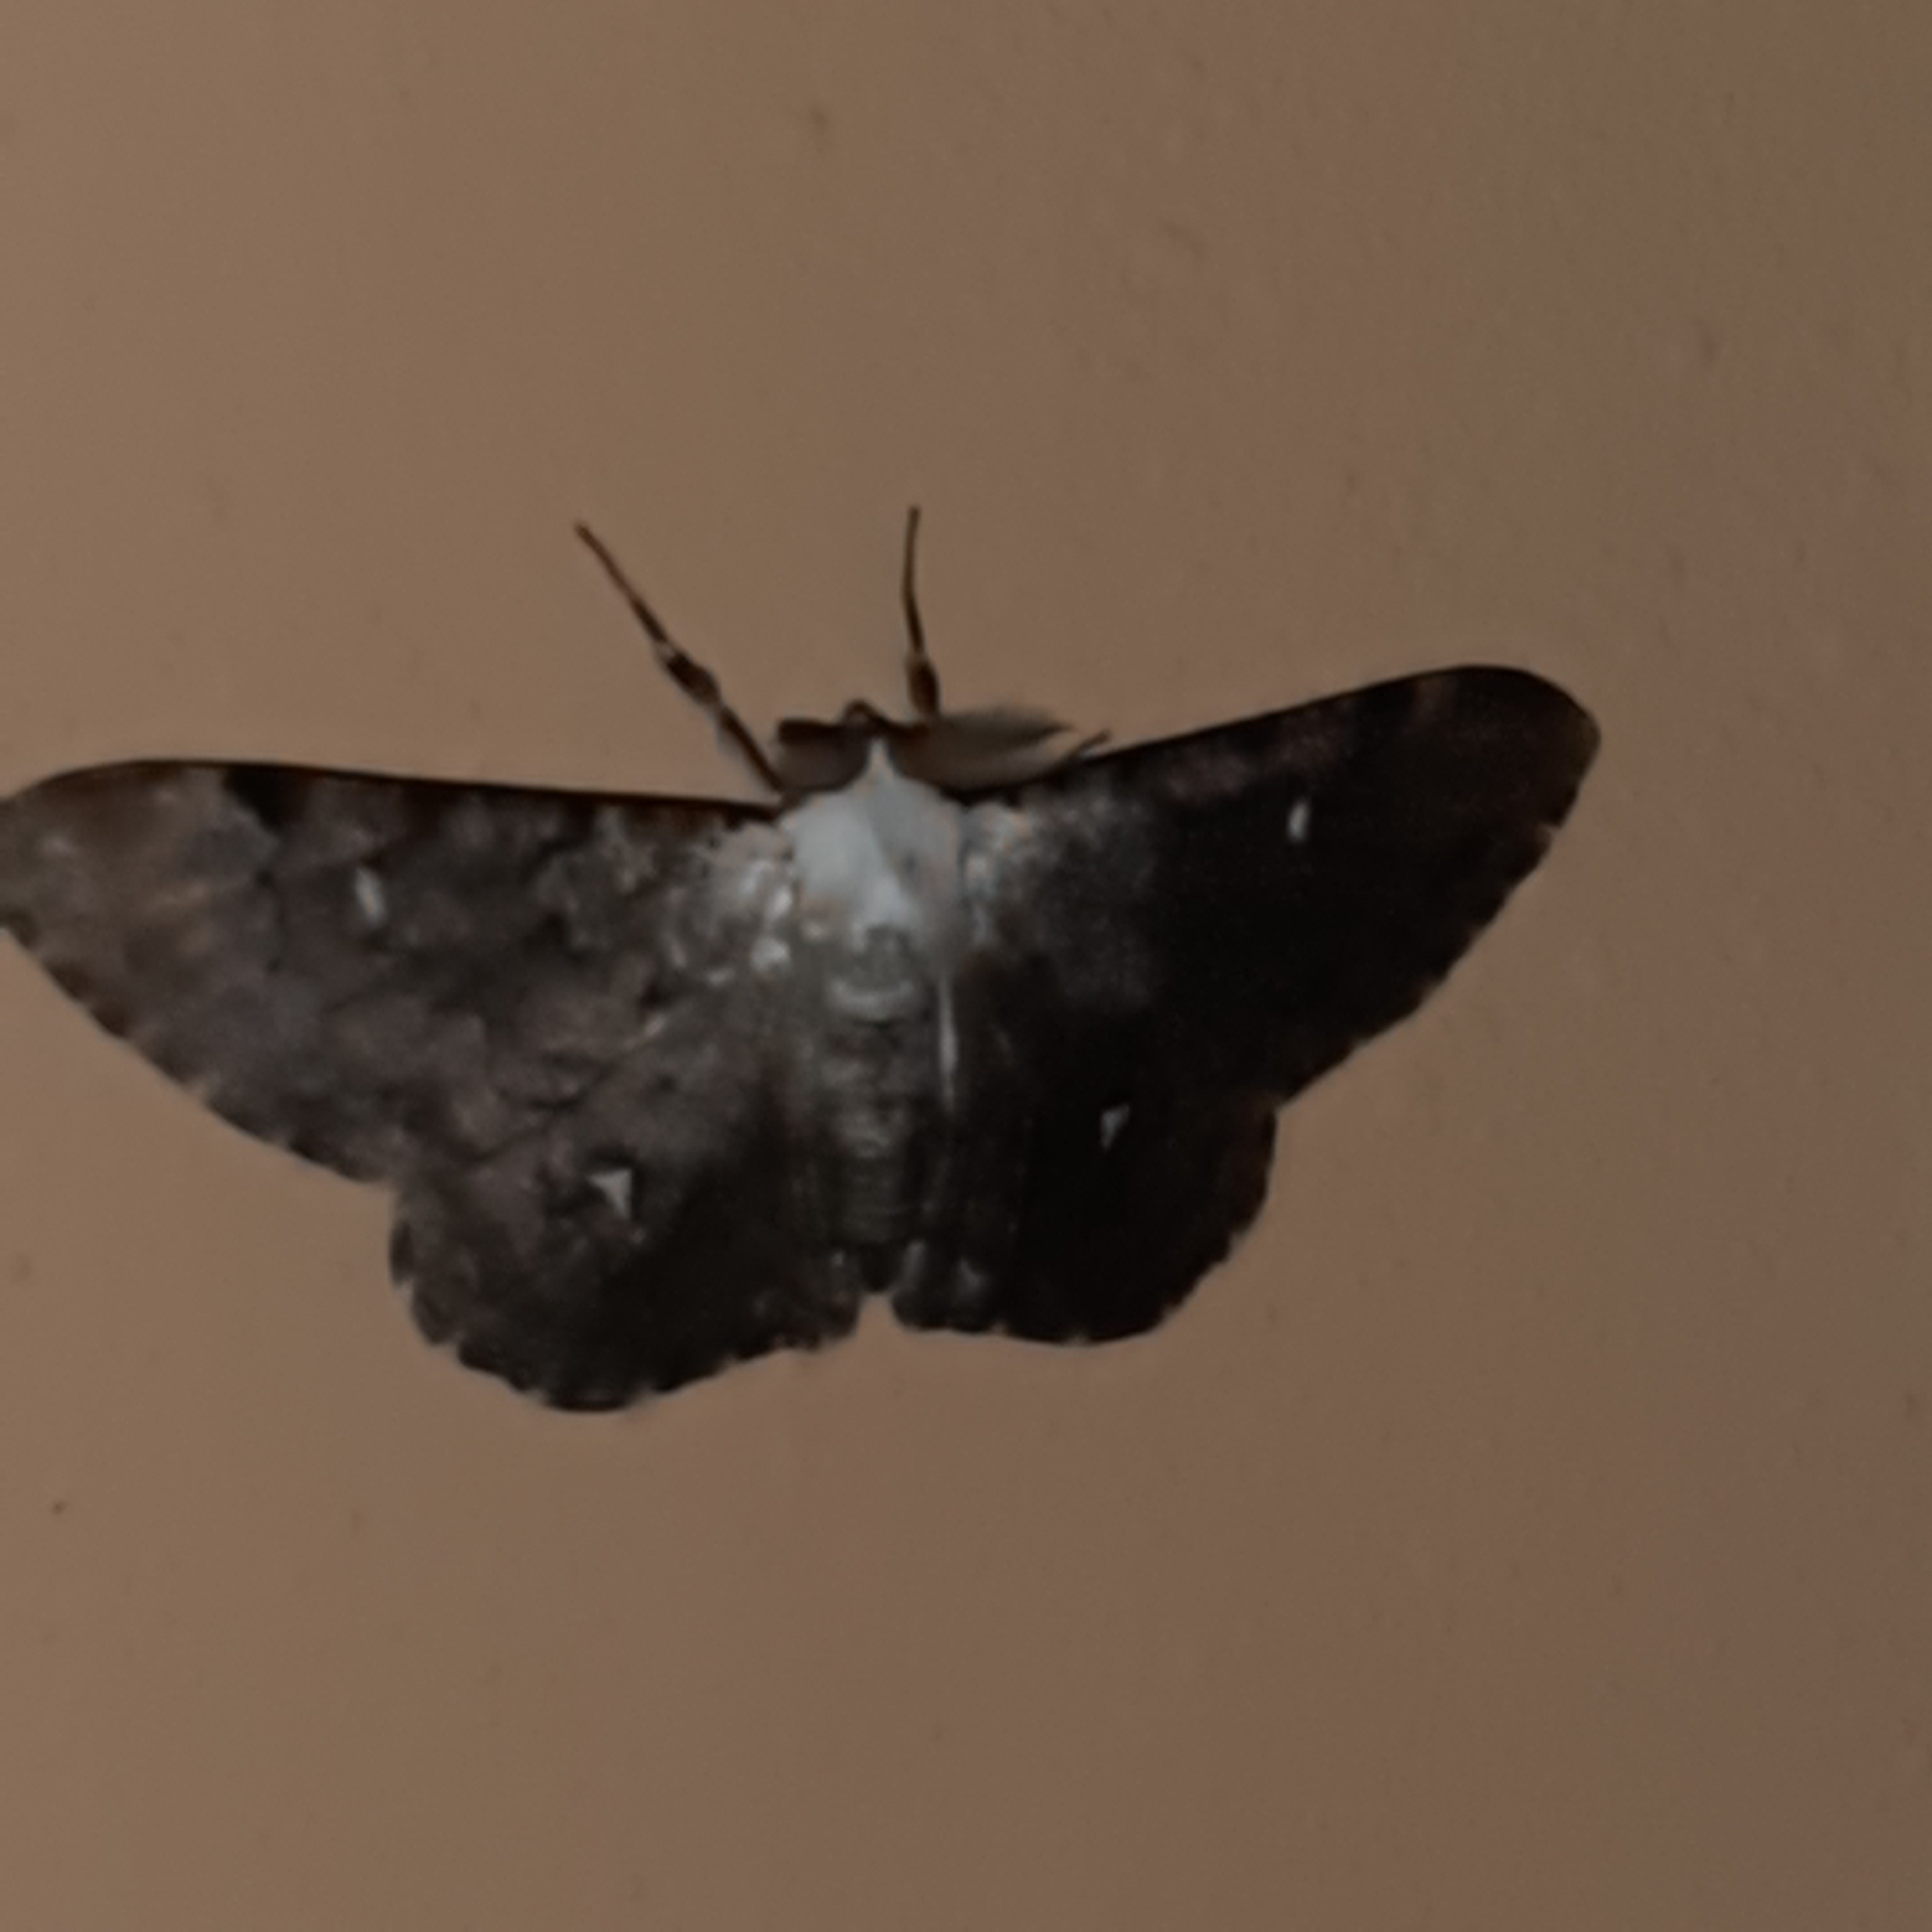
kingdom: Animalia
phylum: Arthropoda
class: Insecta
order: Lepidoptera
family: Geometridae
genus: Thyrinteina
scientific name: Thyrinteina arnobia
